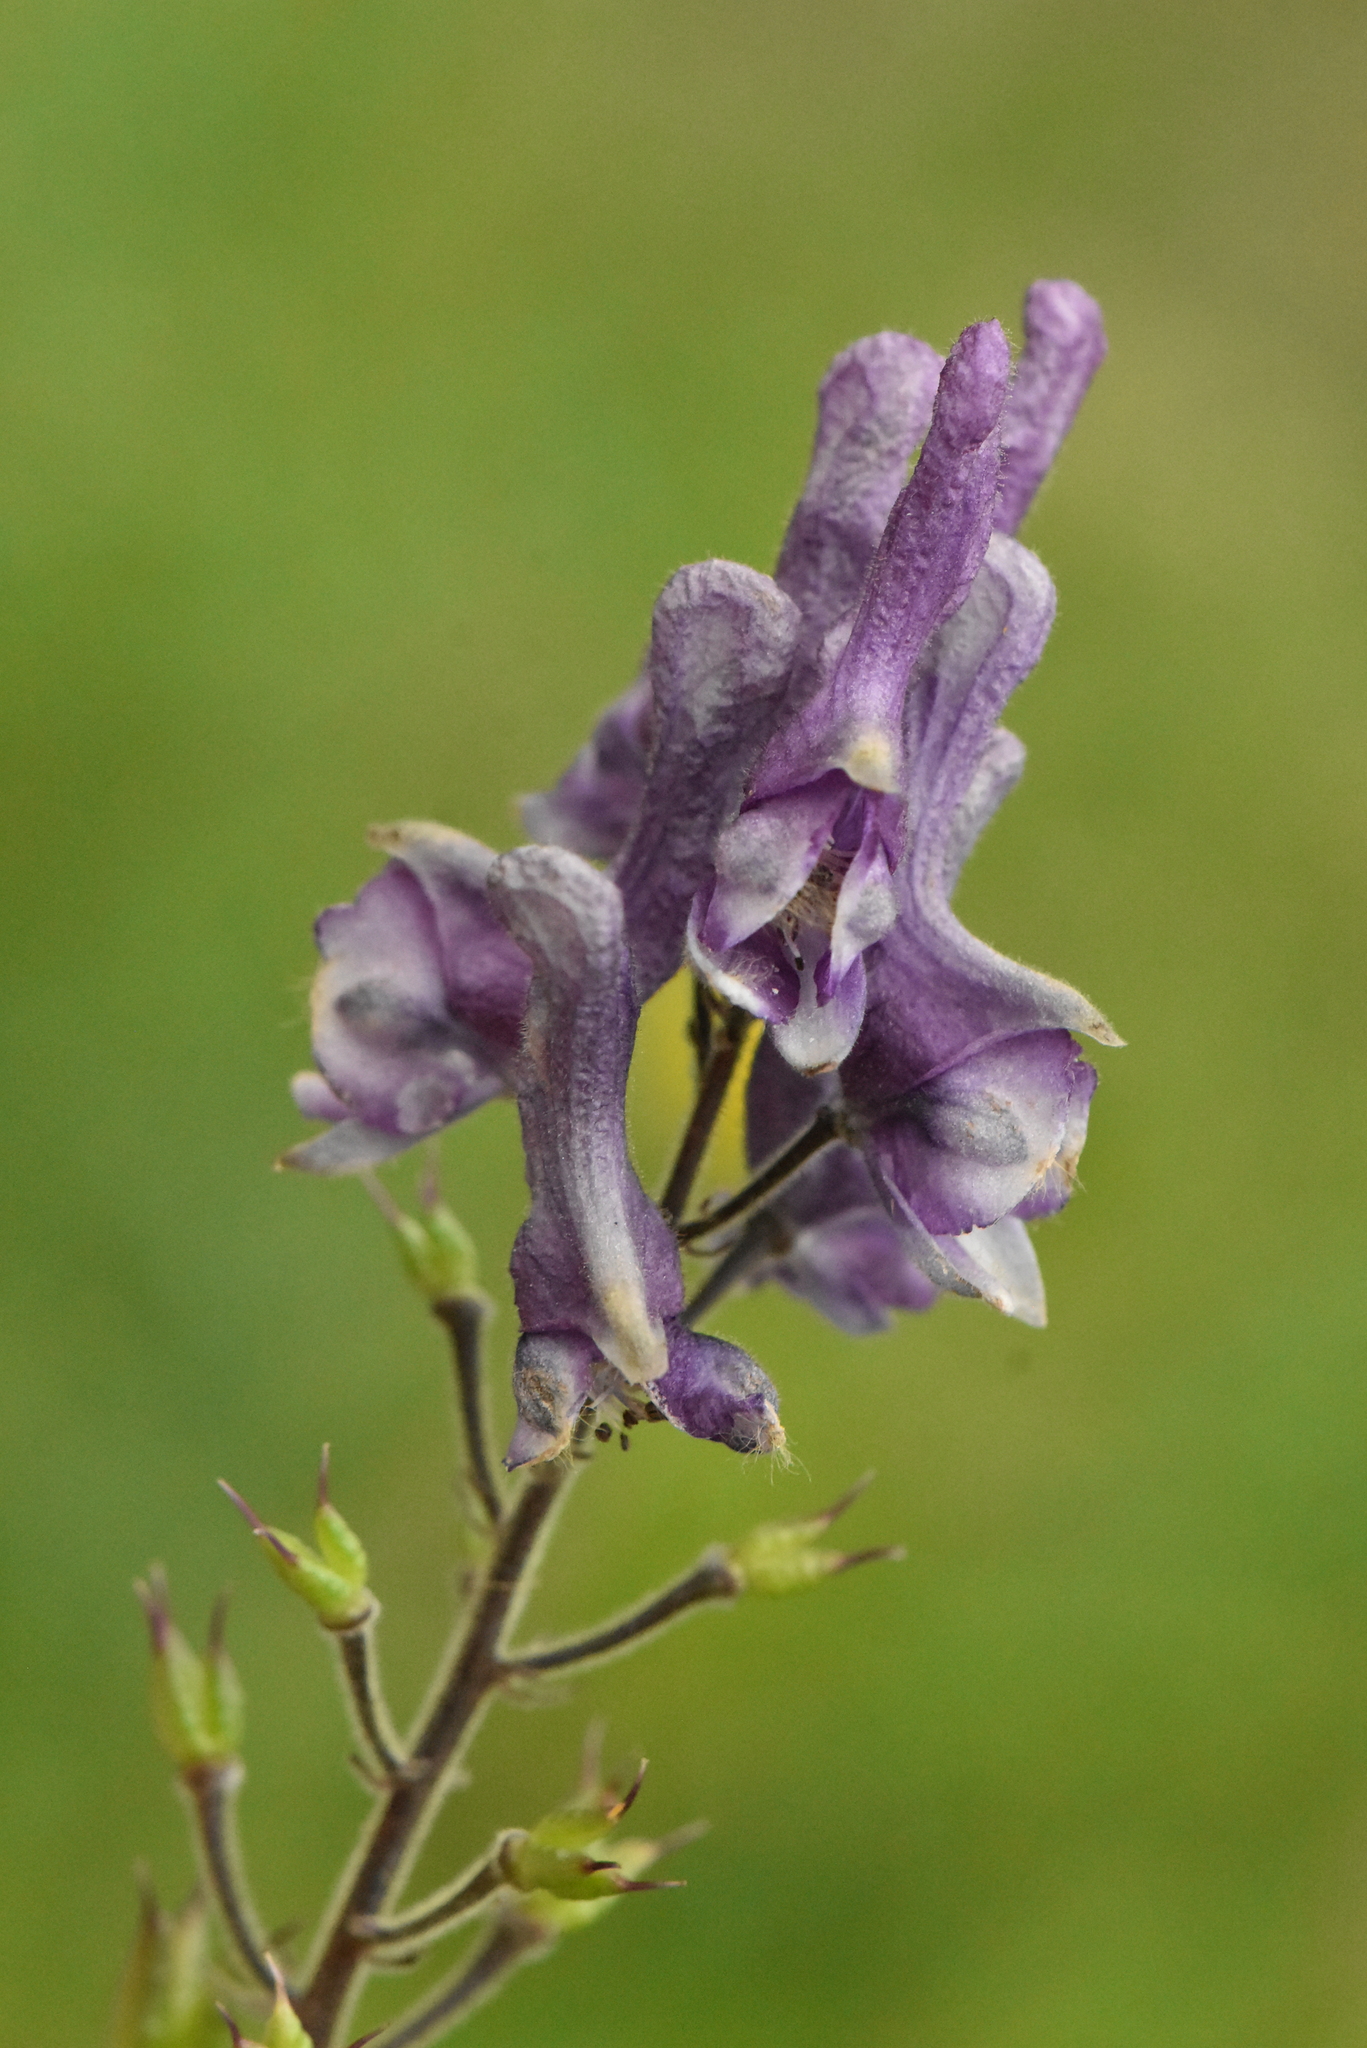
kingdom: Plantae
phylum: Tracheophyta
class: Magnoliopsida
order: Ranunculales
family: Ranunculaceae
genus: Aconitum
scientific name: Aconitum septentrionale
